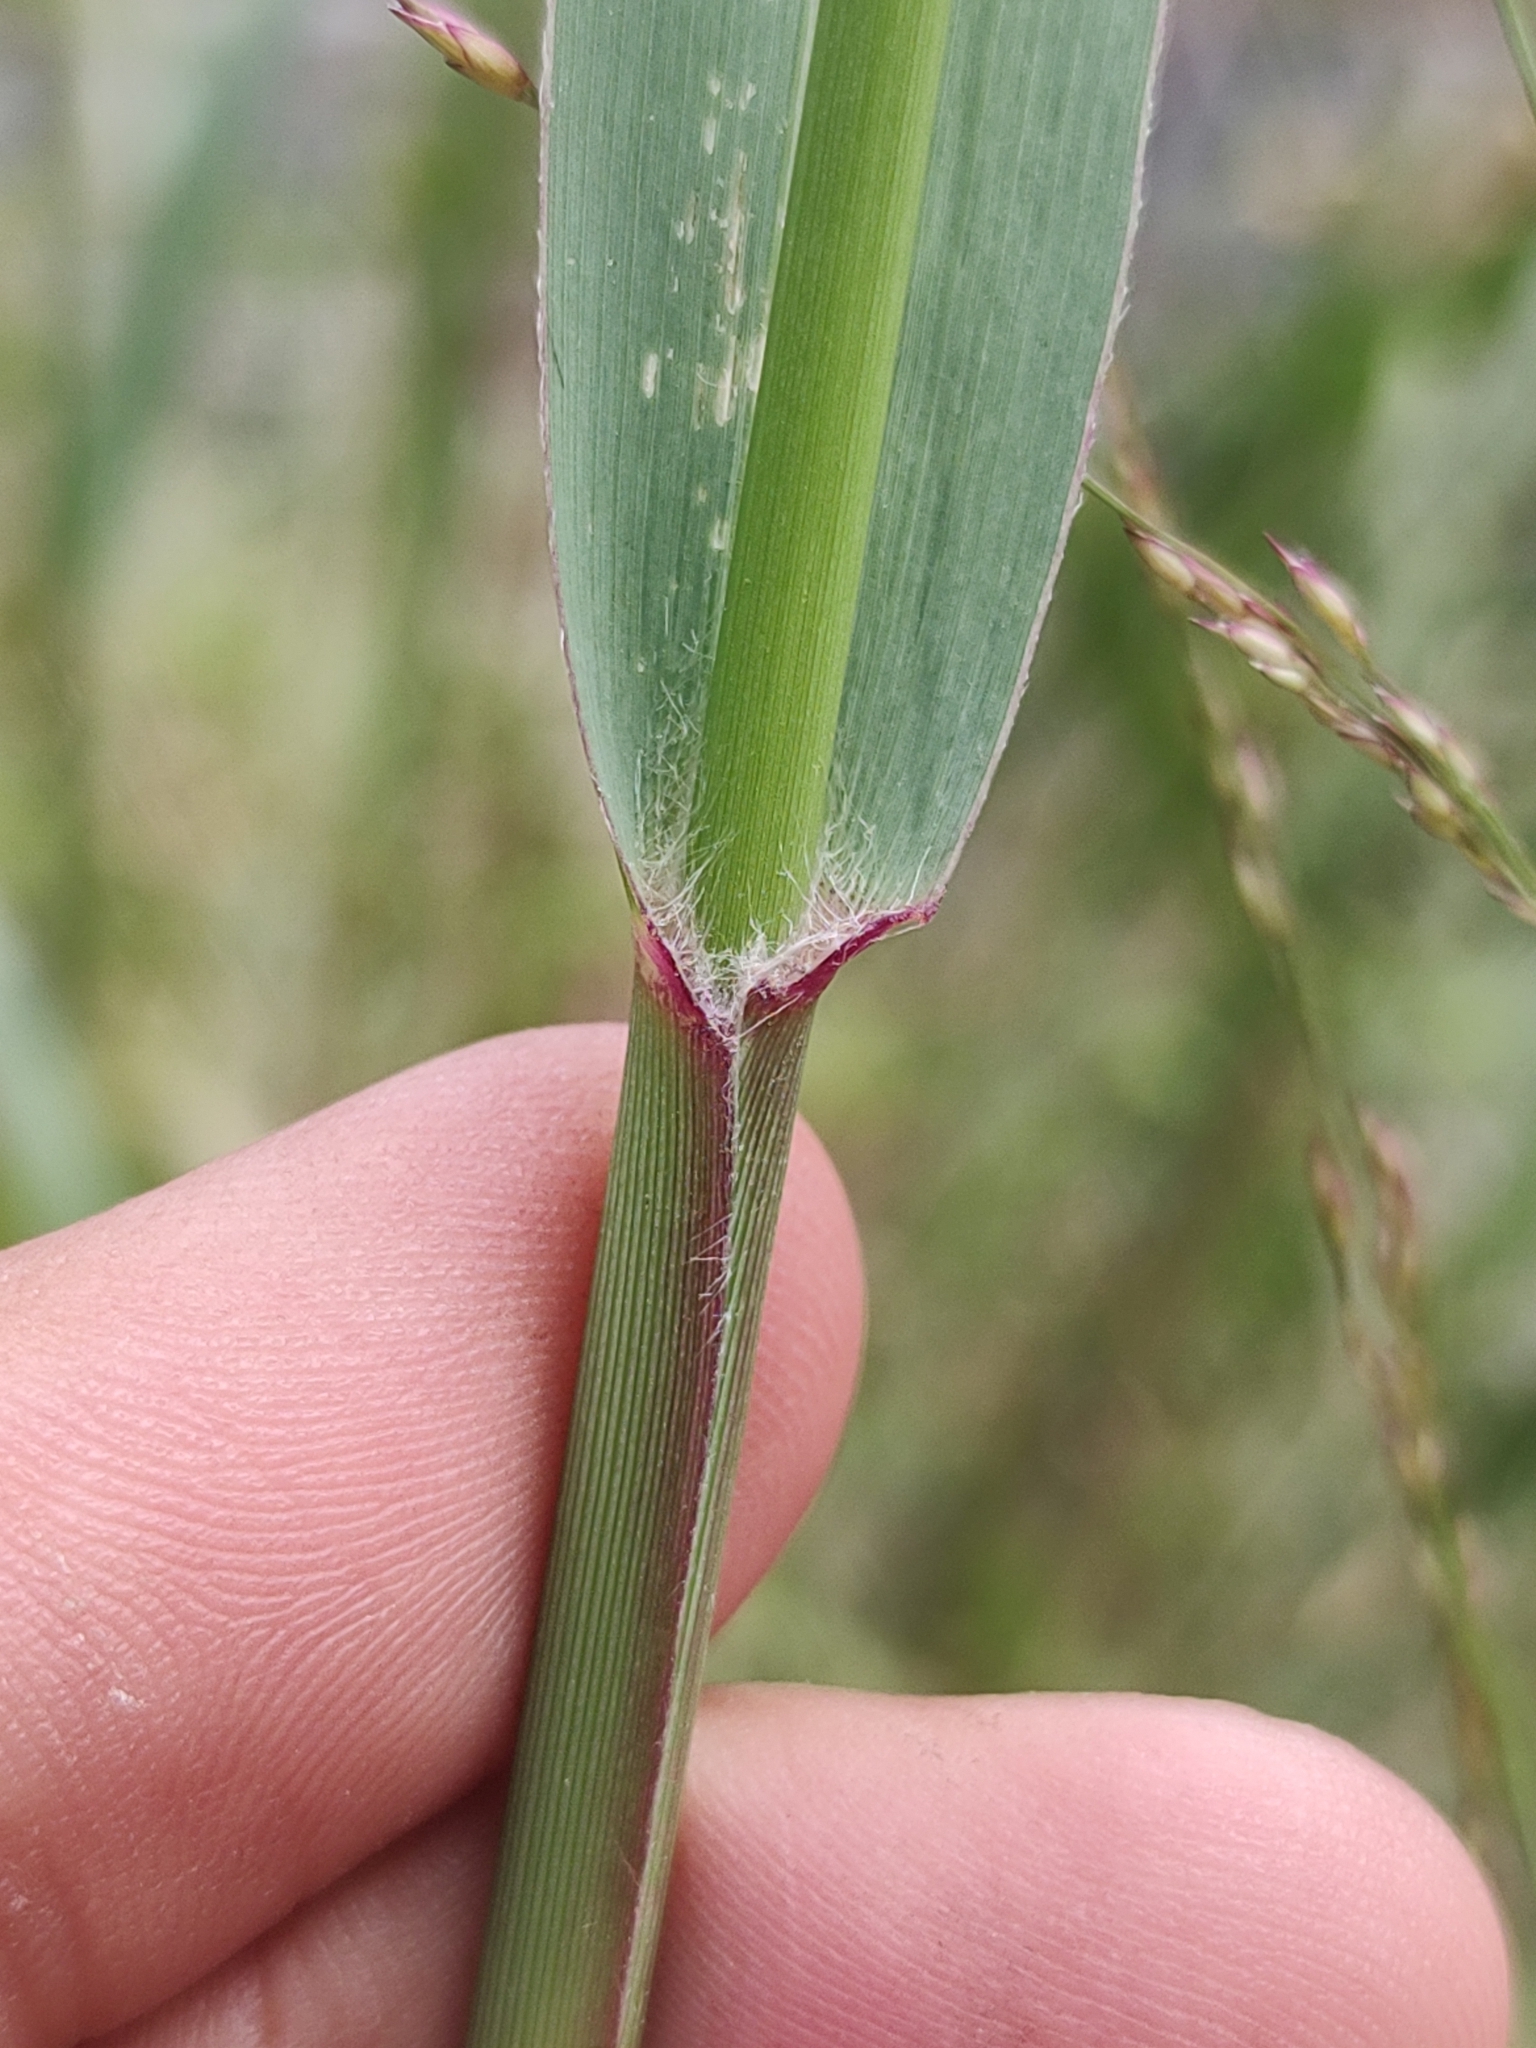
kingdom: Plantae
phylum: Tracheophyta
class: Liliopsida
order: Poales
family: Poaceae
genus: Sorghum
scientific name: Sorghum halepense
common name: Johnson-grass
